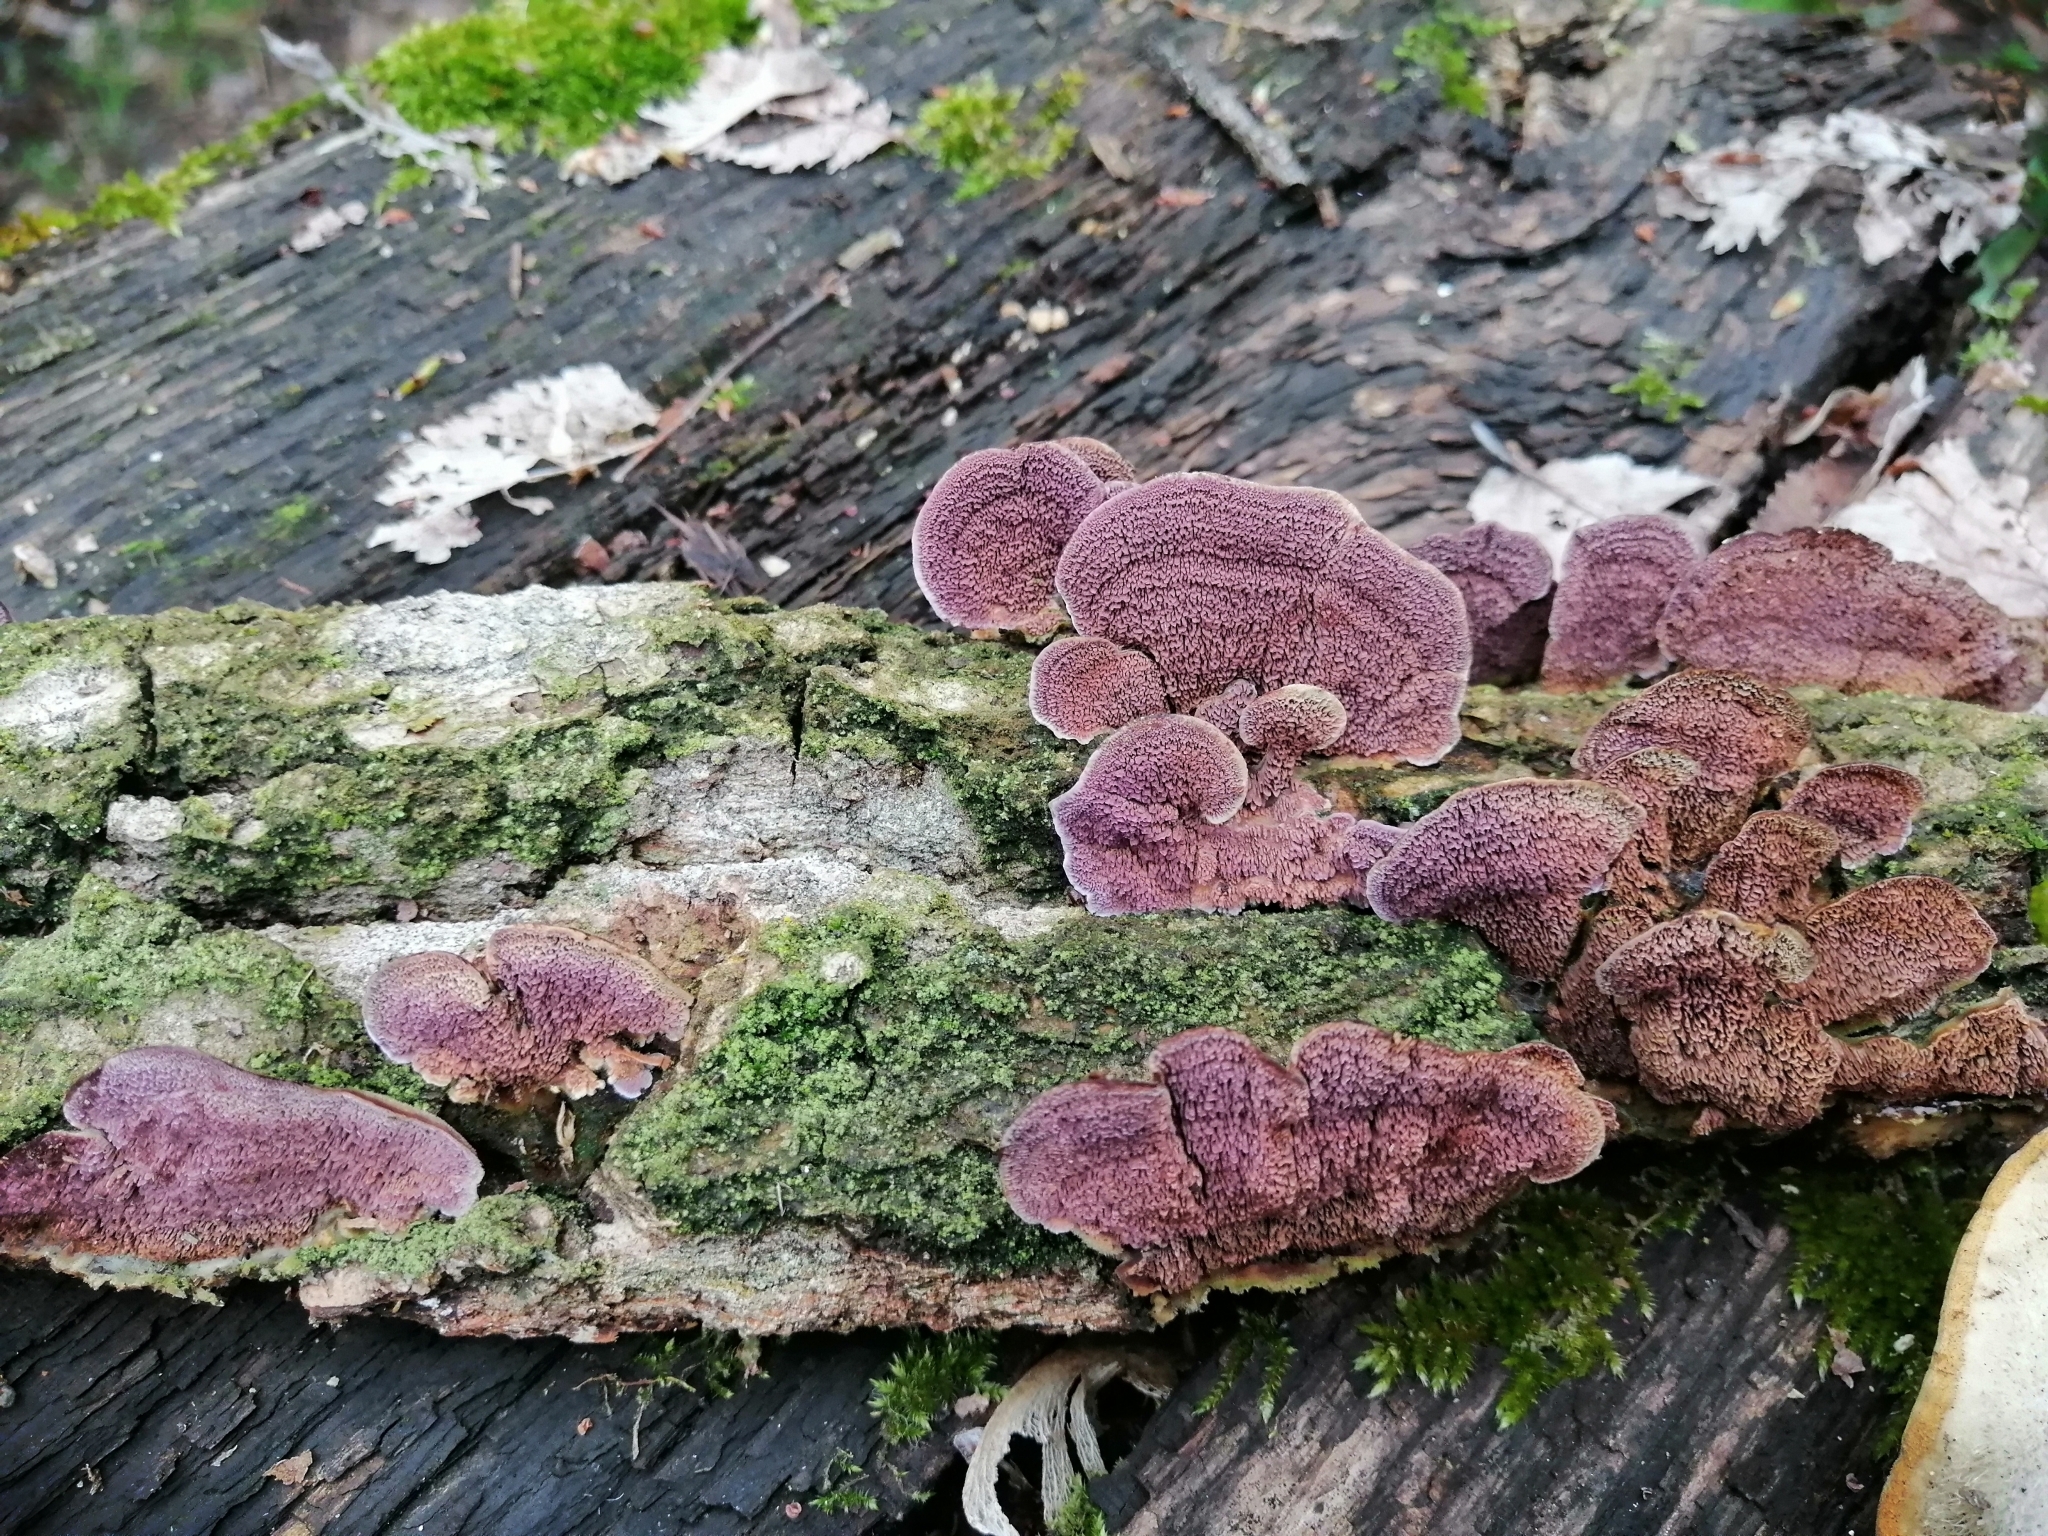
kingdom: Fungi
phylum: Basidiomycota
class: Agaricomycetes
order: Hymenochaetales
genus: Trichaptum
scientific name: Trichaptum biforme
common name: Violet-toothed polypore
